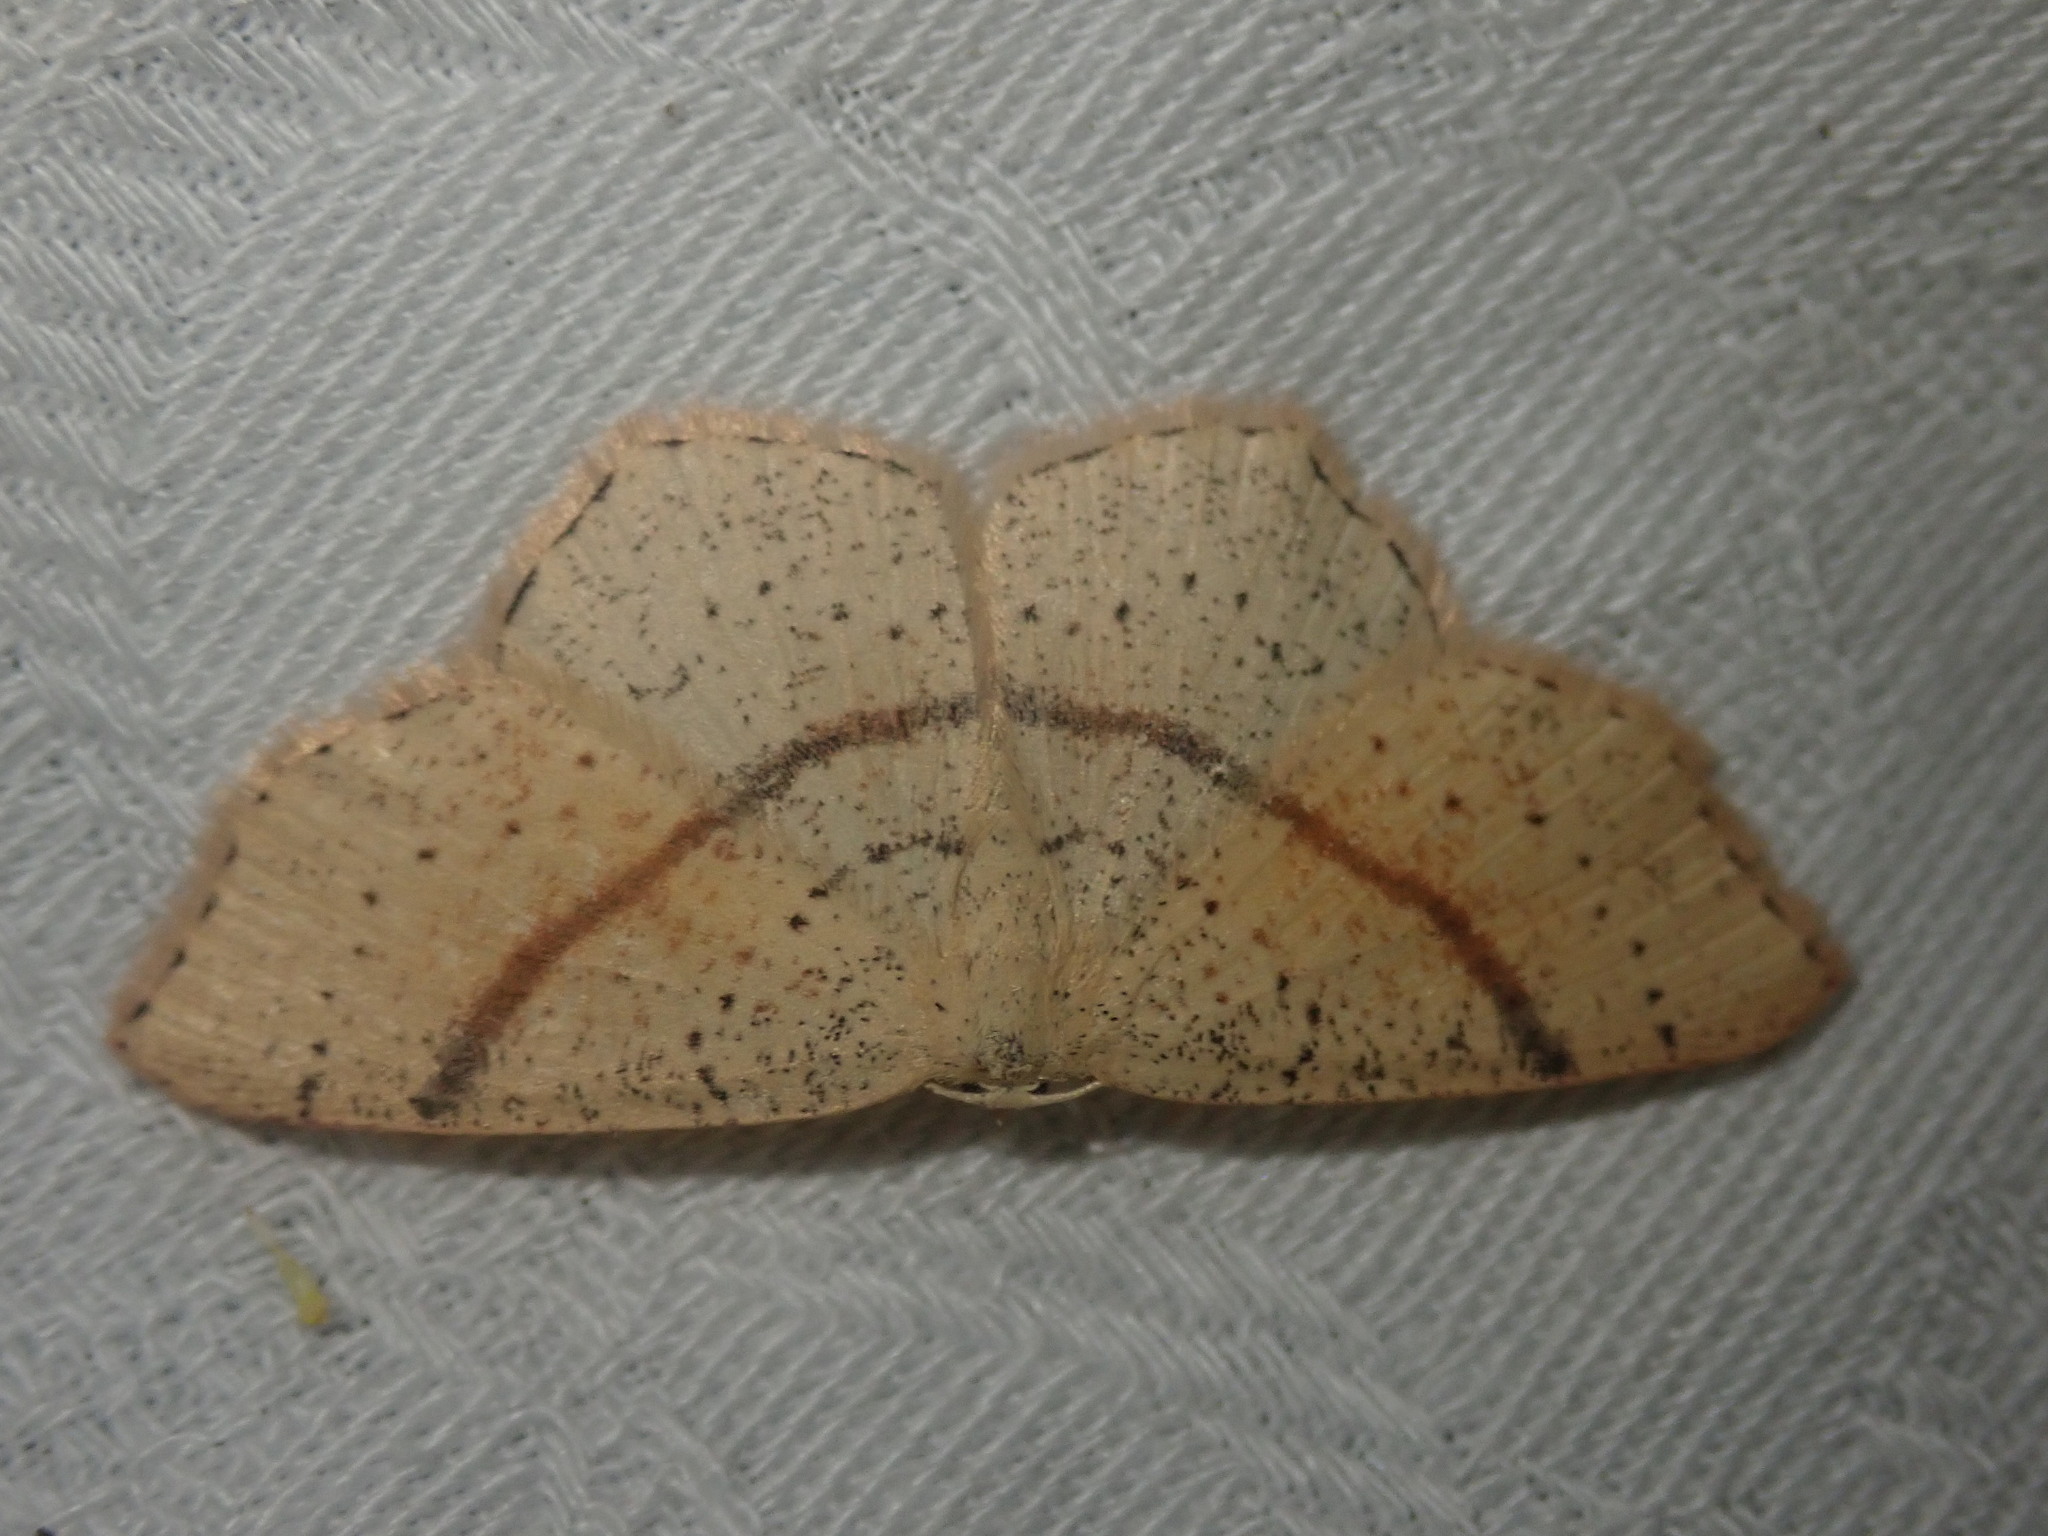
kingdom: Animalia
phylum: Arthropoda
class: Insecta
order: Lepidoptera
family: Geometridae
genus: Cyclophora
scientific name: Cyclophora punctaria
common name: Maiden's blush
